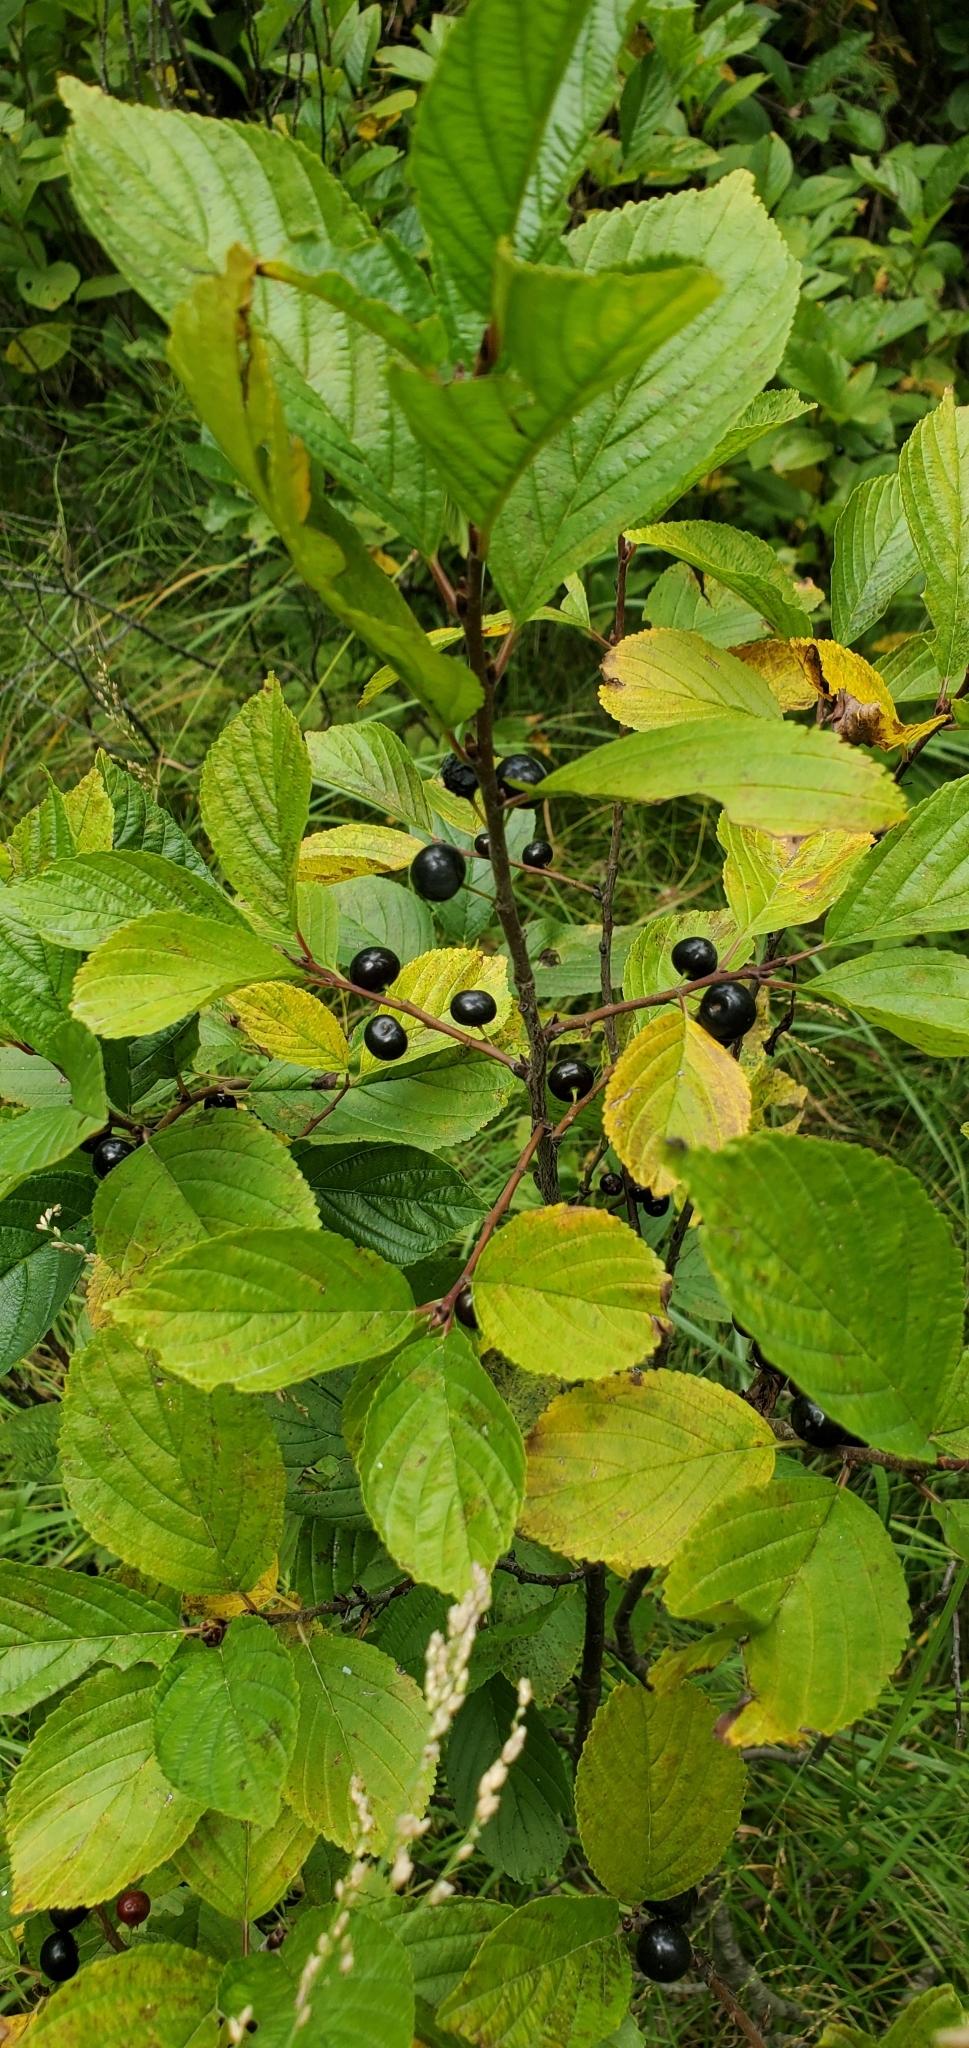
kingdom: Plantae
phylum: Tracheophyta
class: Magnoliopsida
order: Rosales
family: Rhamnaceae
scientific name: Rhamnaceae
